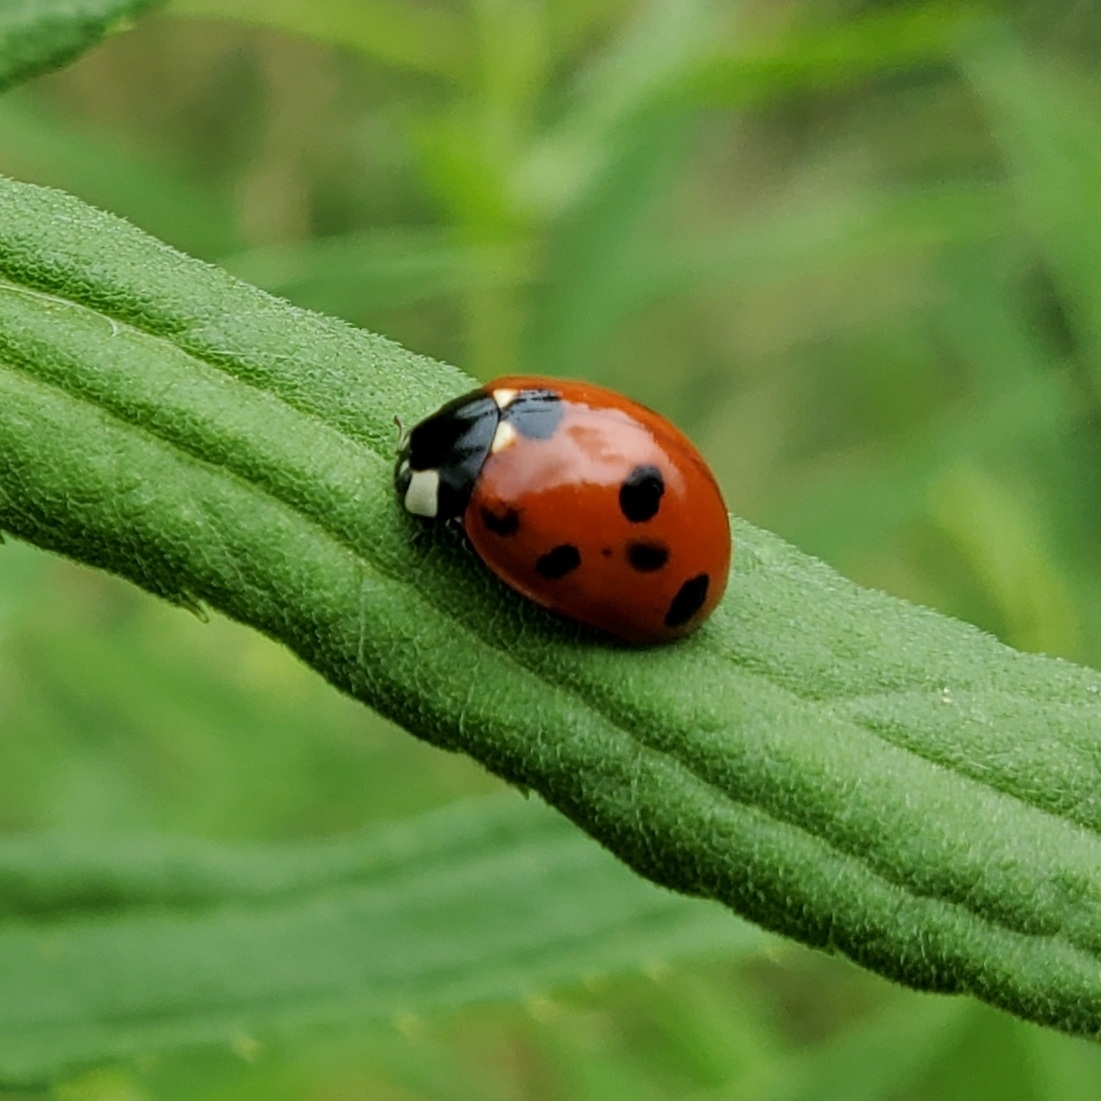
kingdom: Animalia
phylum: Arthropoda
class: Insecta
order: Coleoptera
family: Coccinellidae
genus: Coccinella
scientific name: Coccinella septempunctata
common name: Sevenspotted lady beetle
